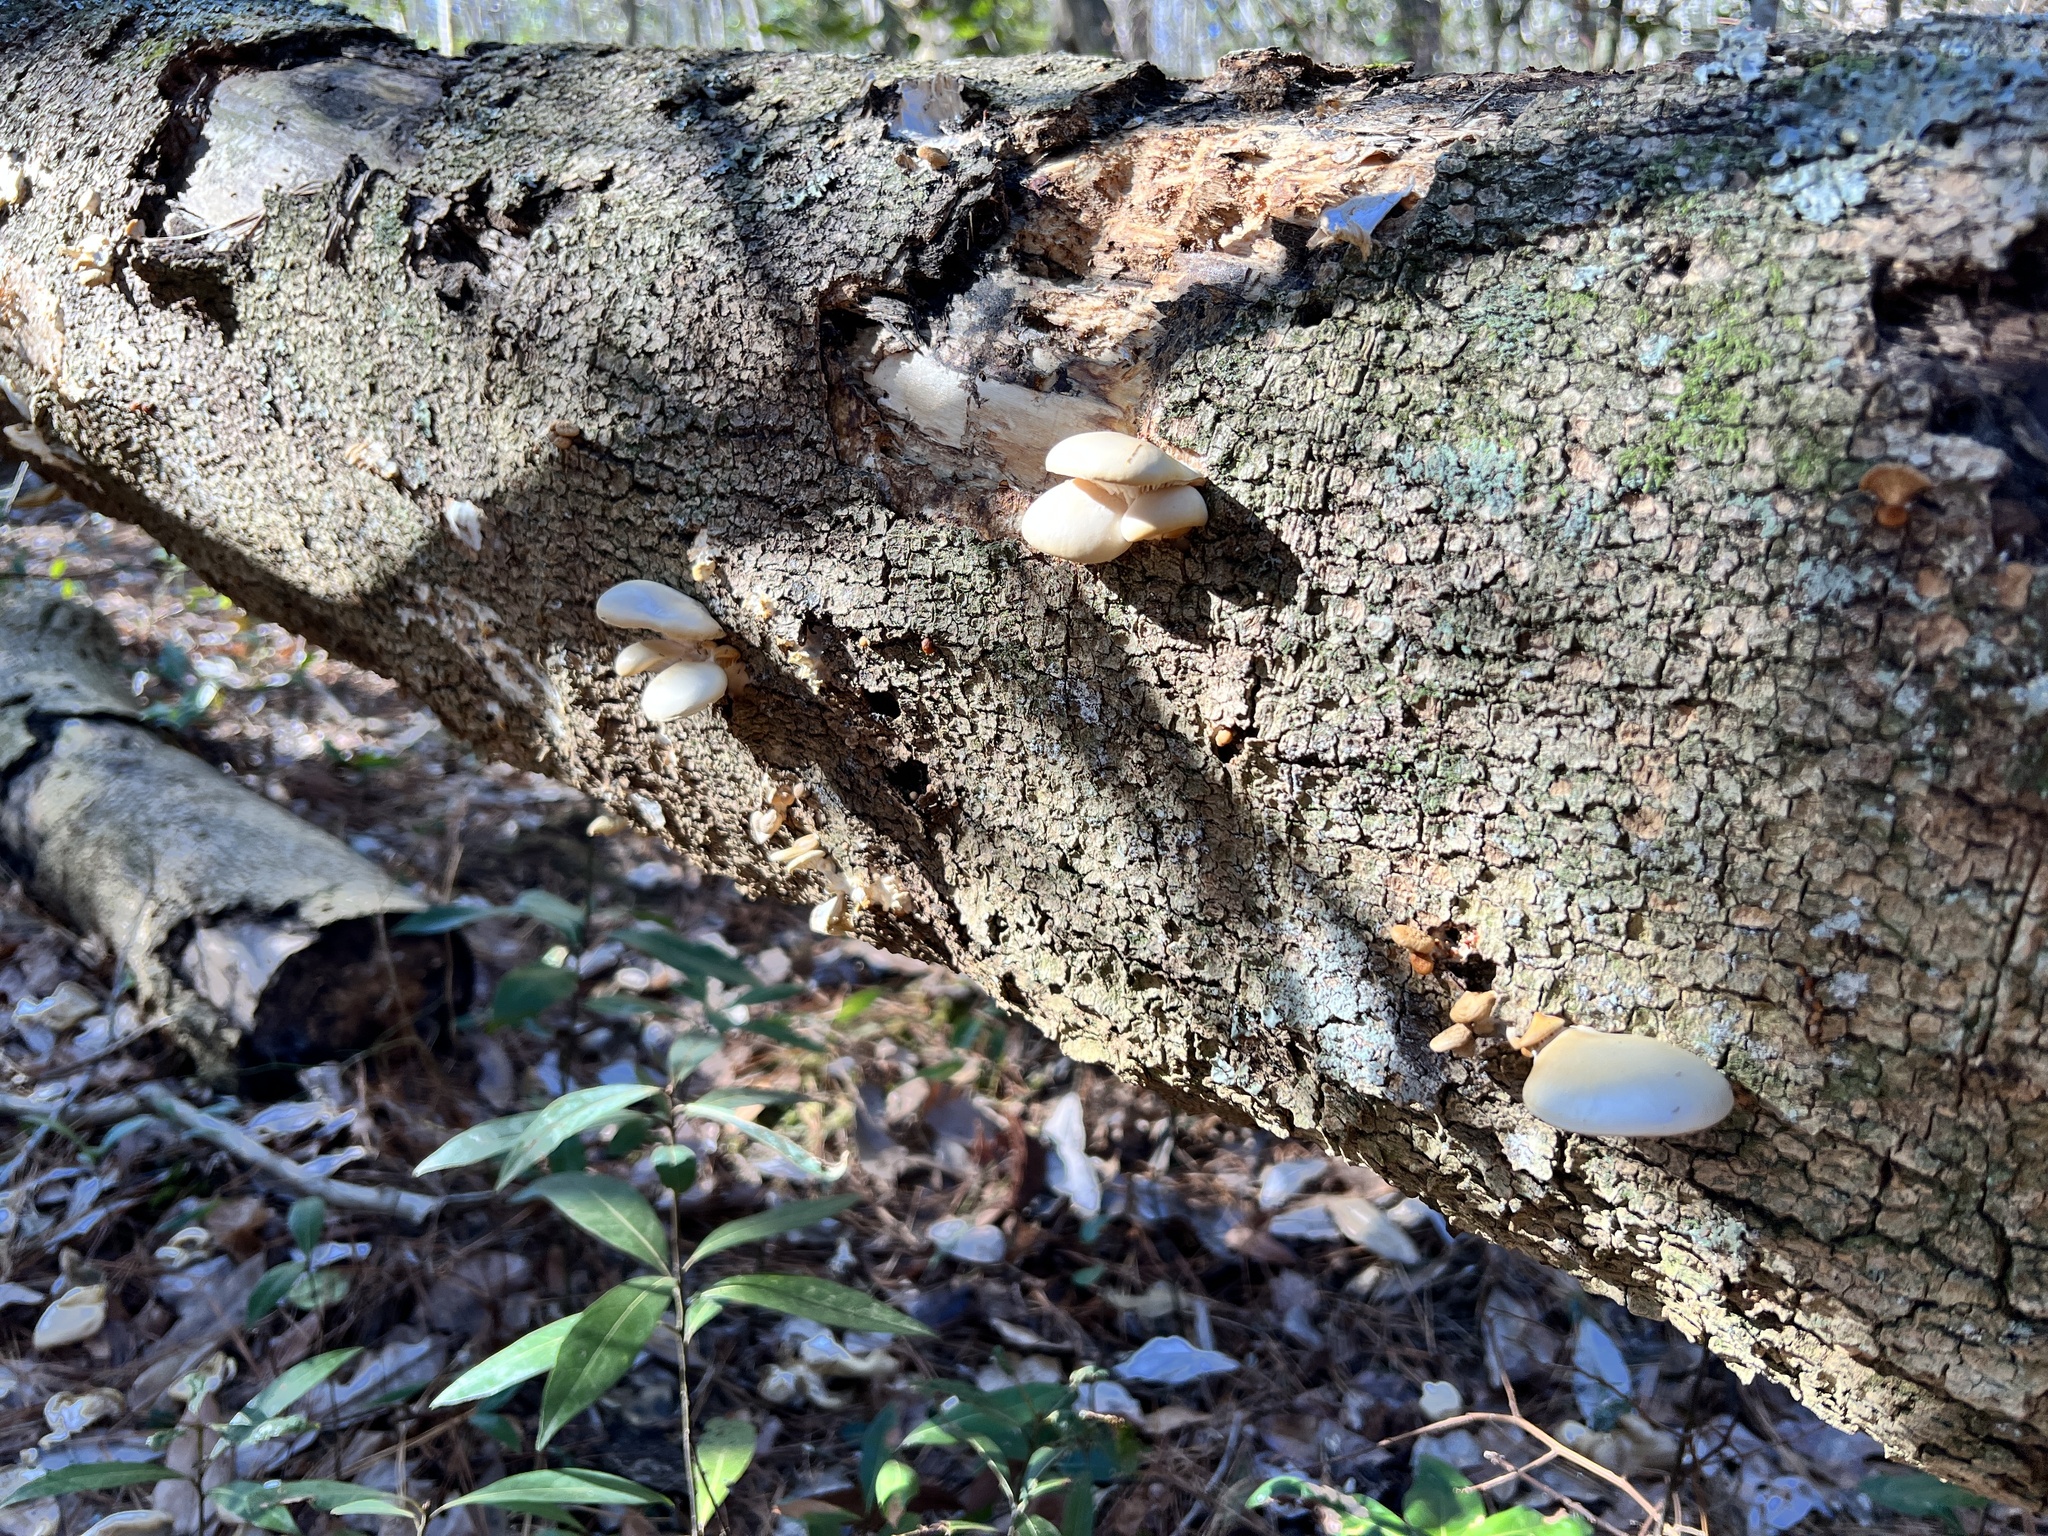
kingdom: Fungi
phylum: Basidiomycota
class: Agaricomycetes
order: Agaricales
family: Pleurotaceae
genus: Pleurotus
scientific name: Pleurotus ostreatus
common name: Oyster mushroom
